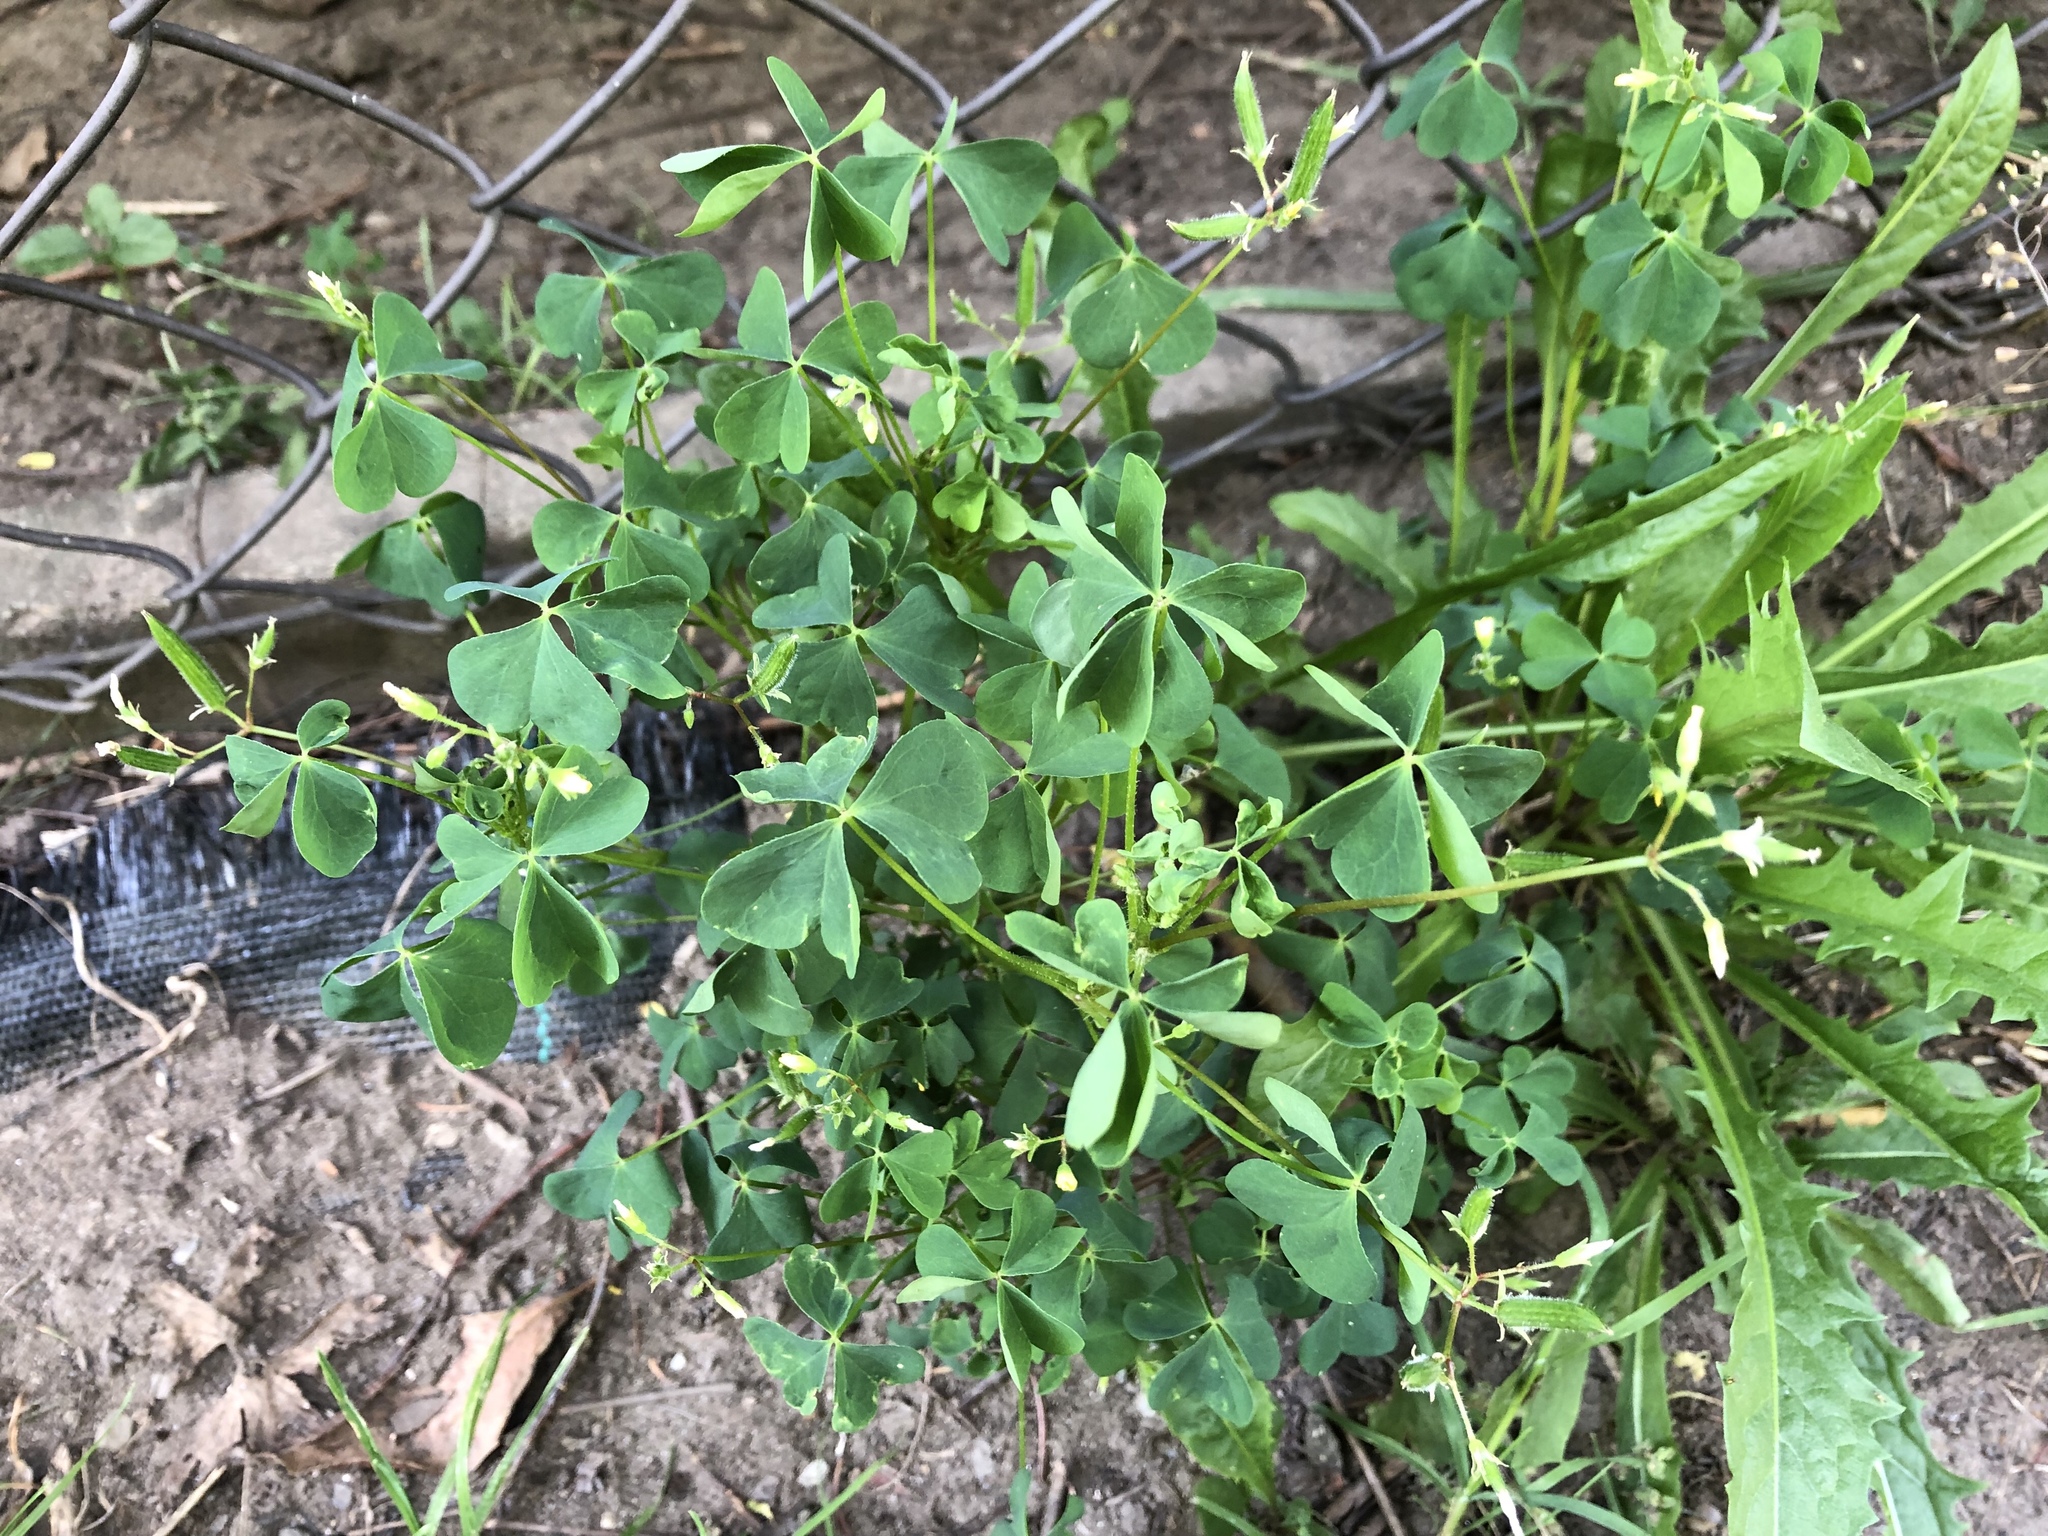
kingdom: Plantae
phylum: Tracheophyta
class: Magnoliopsida
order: Oxalidales
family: Oxalidaceae
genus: Oxalis
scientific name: Oxalis stricta
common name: Upright yellow-sorrel
